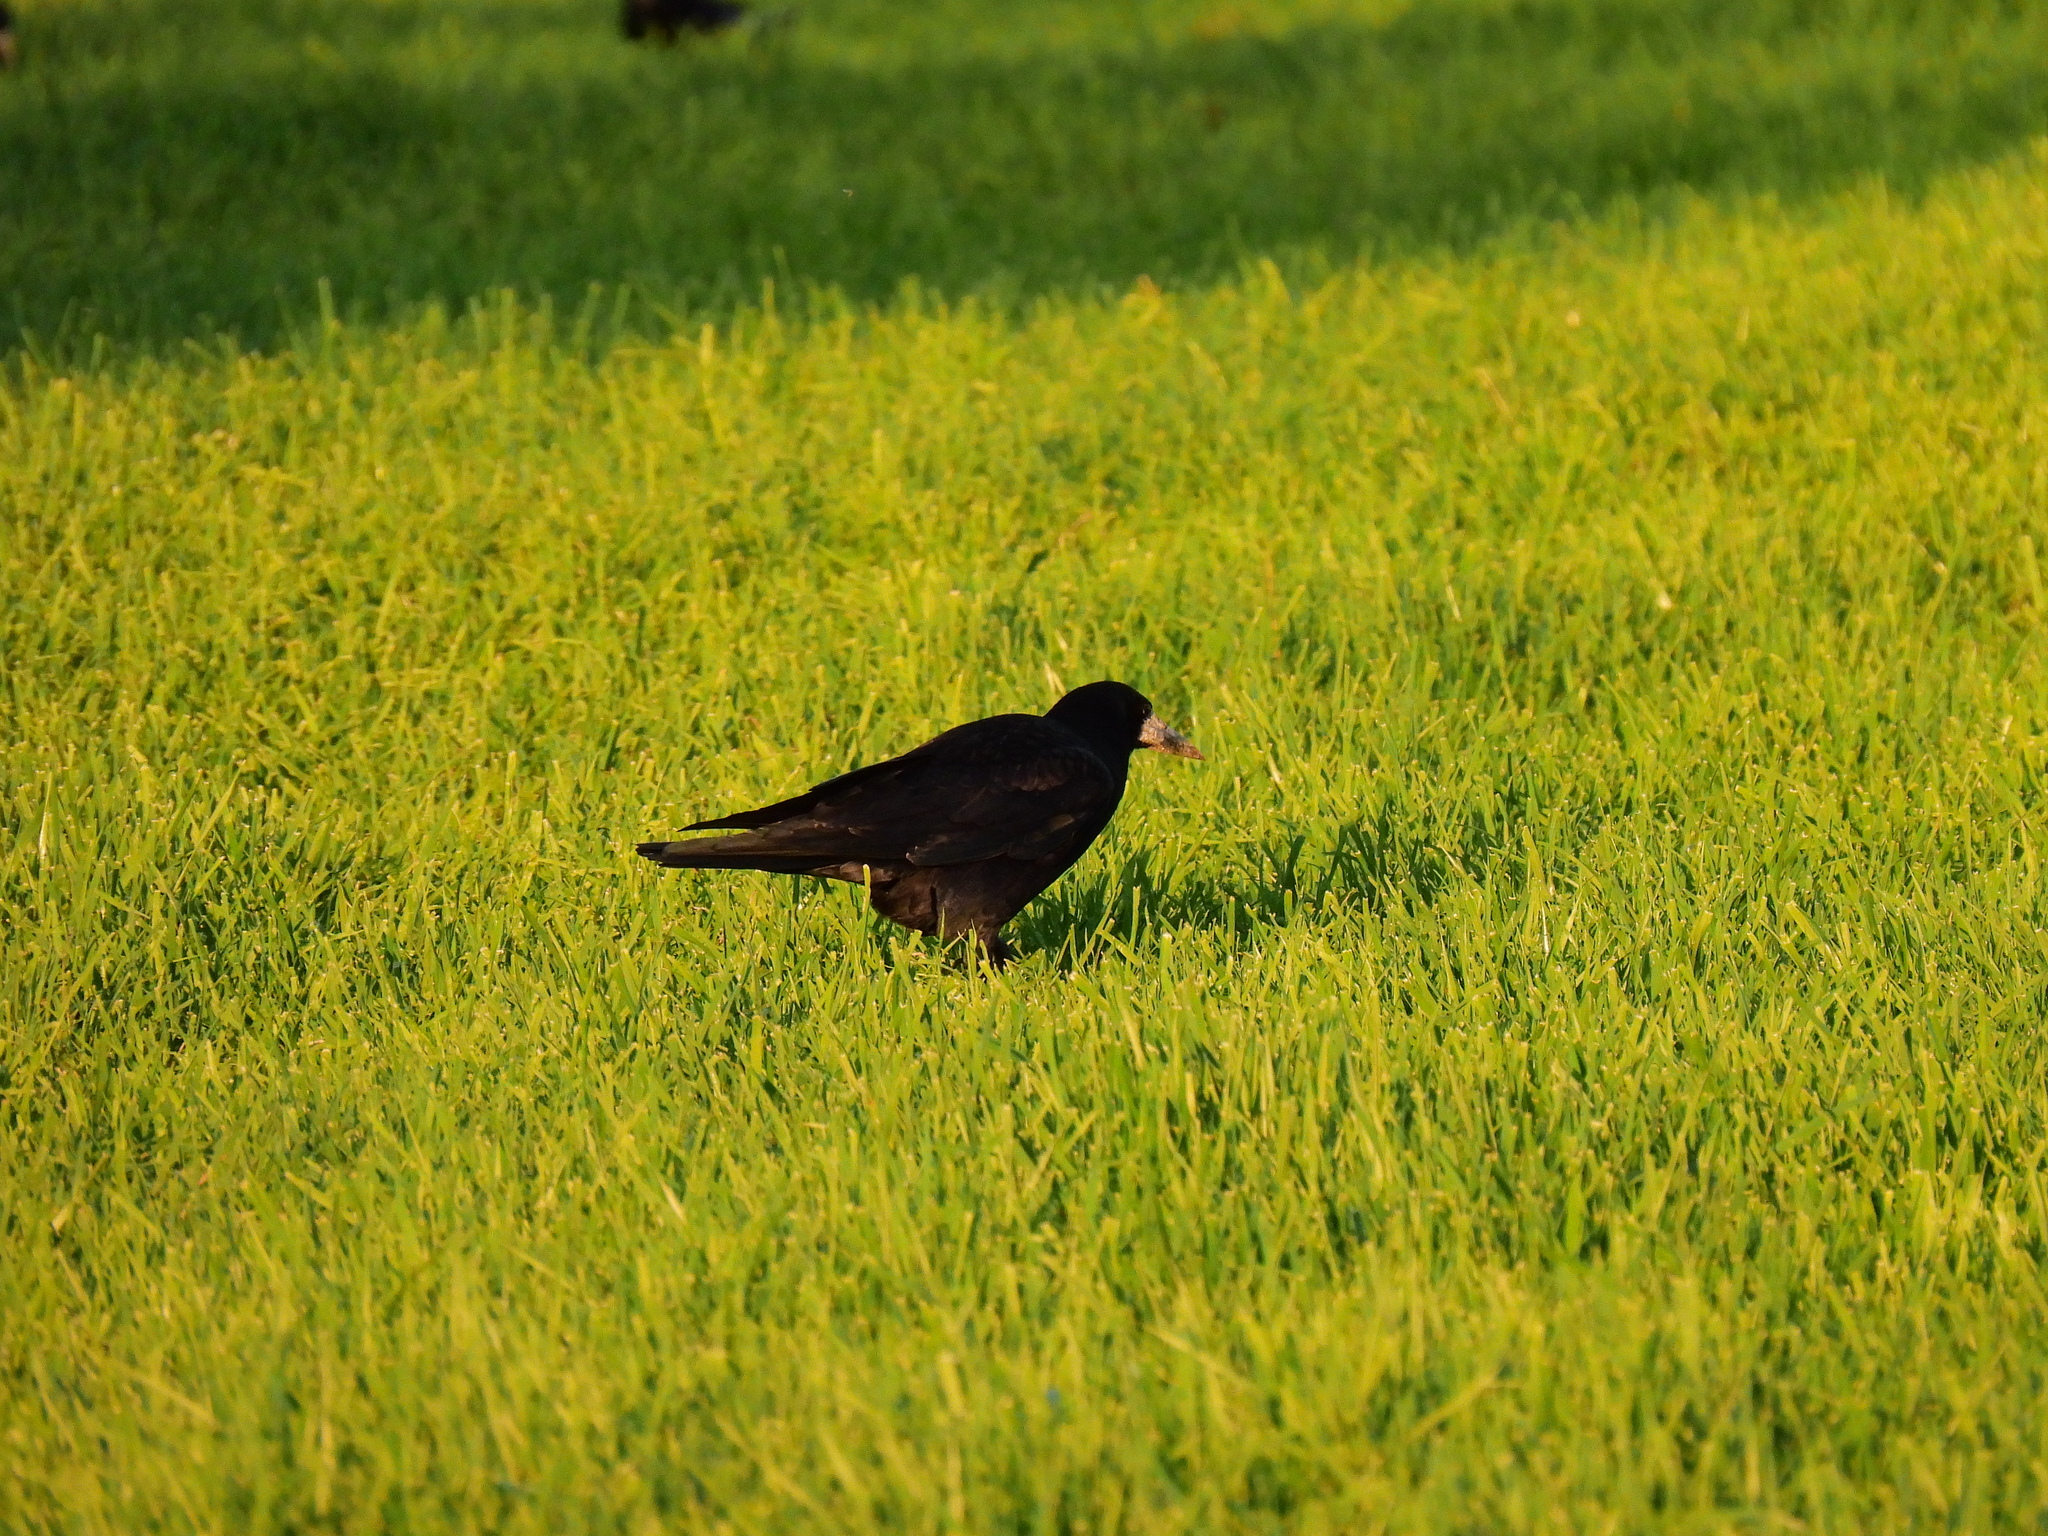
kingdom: Animalia
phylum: Chordata
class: Aves
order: Passeriformes
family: Corvidae
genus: Corvus
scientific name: Corvus frugilegus
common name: Rook
